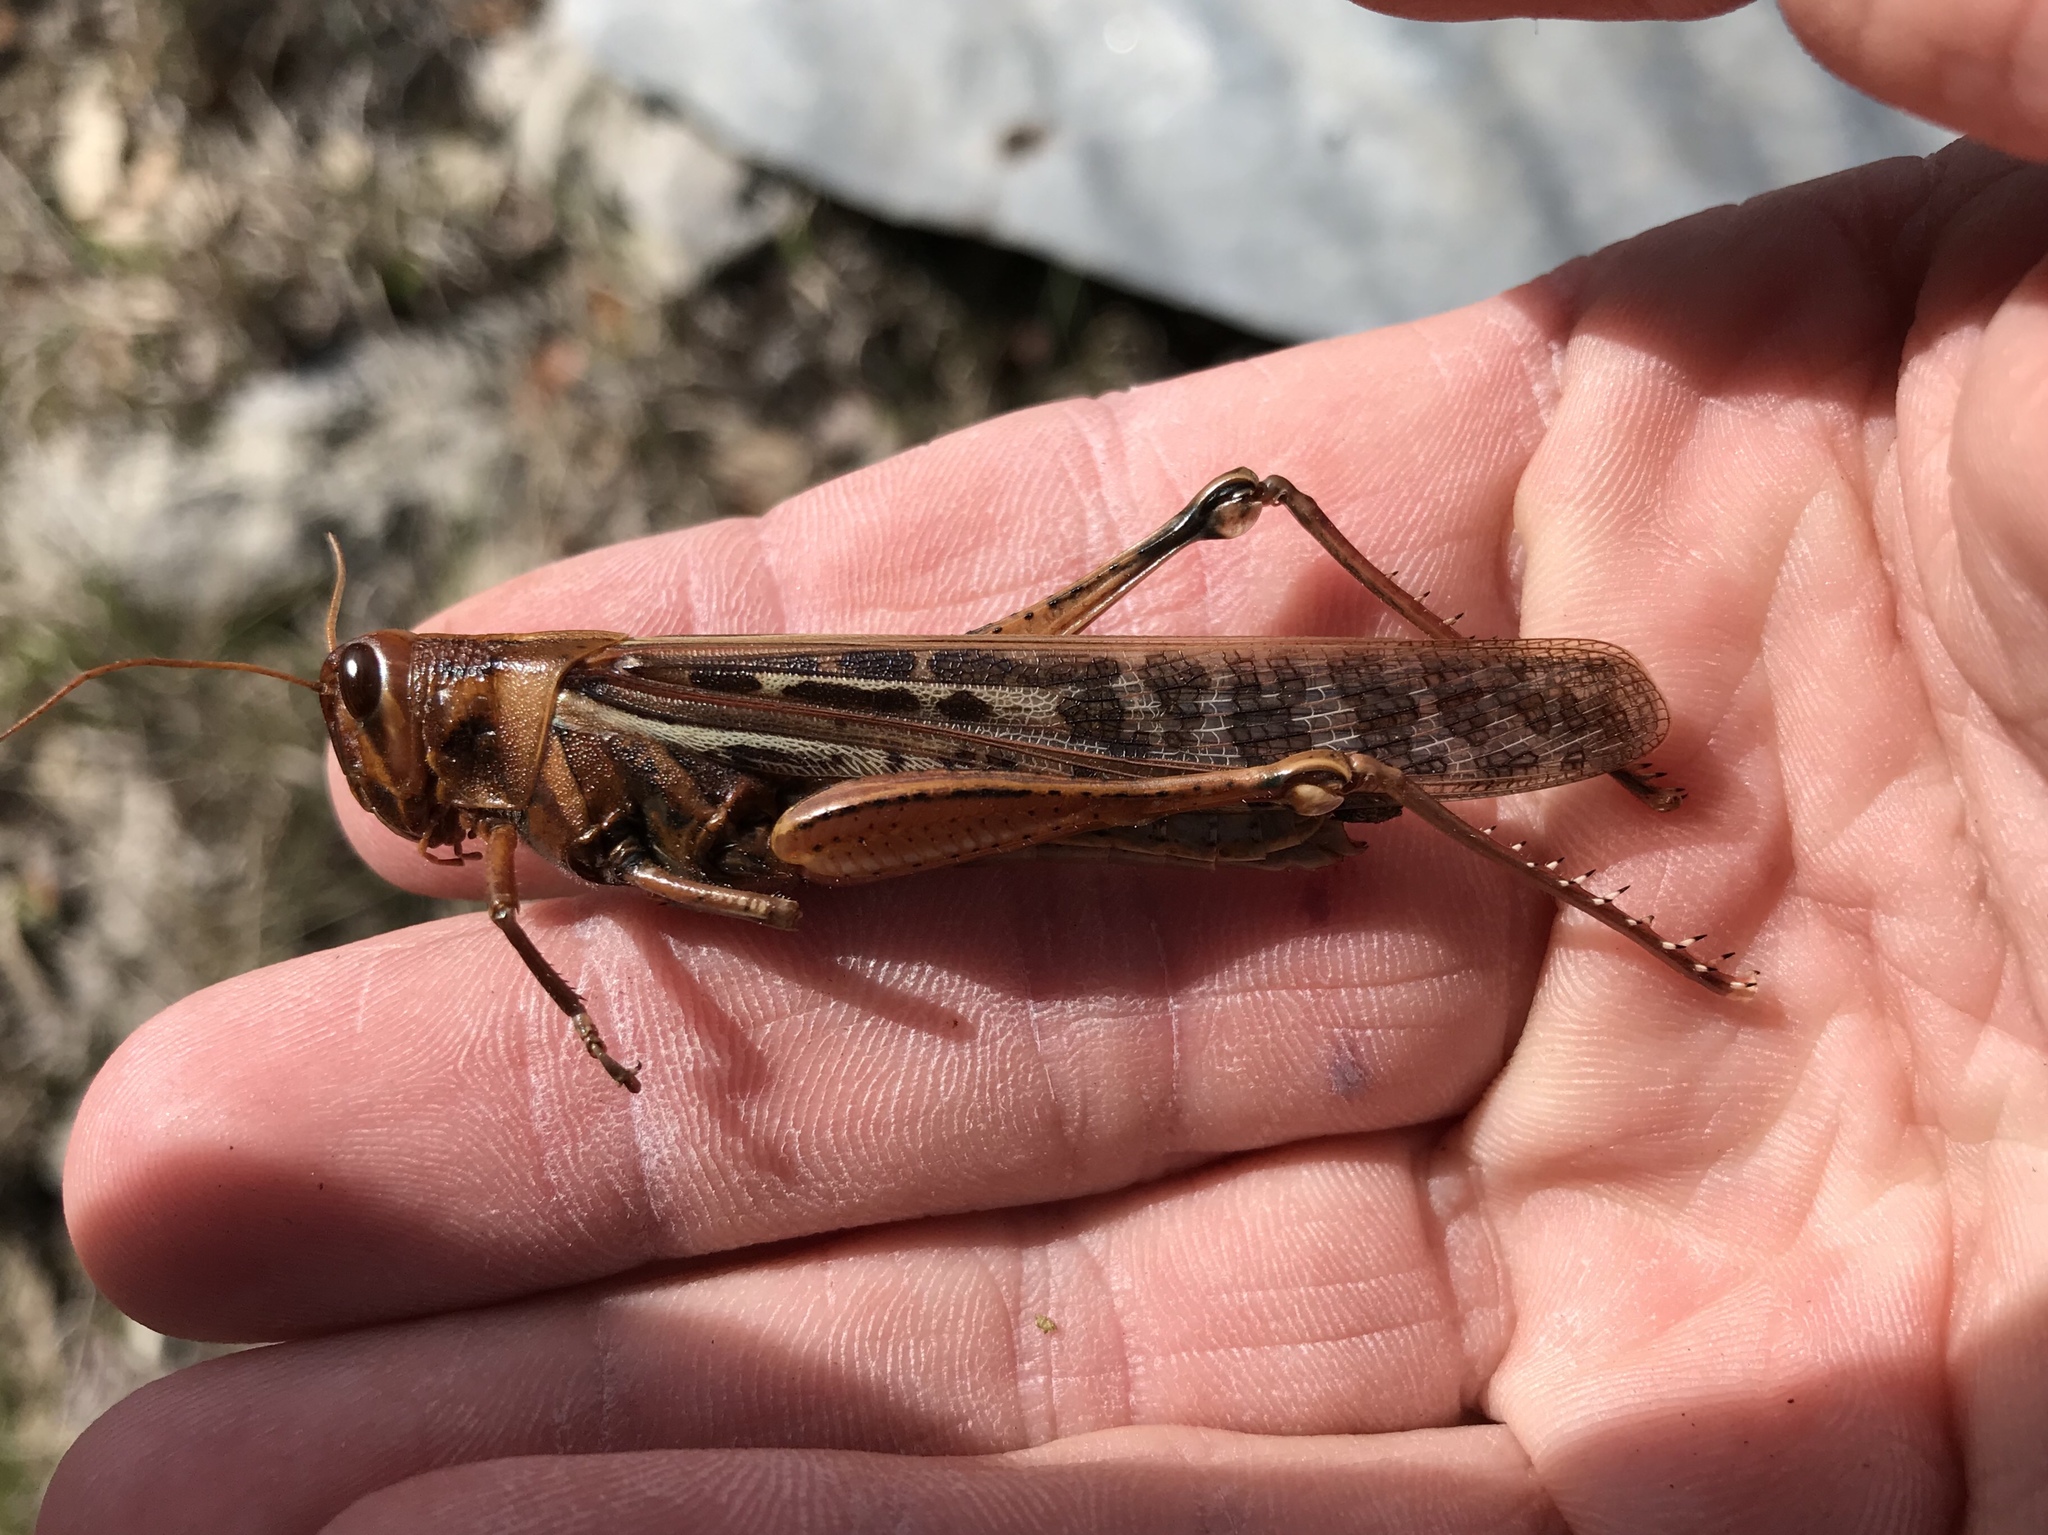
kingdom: Animalia
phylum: Arthropoda
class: Insecta
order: Orthoptera
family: Acrididae
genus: Schistocerca
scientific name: Schistocerca americana
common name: American bird locust
